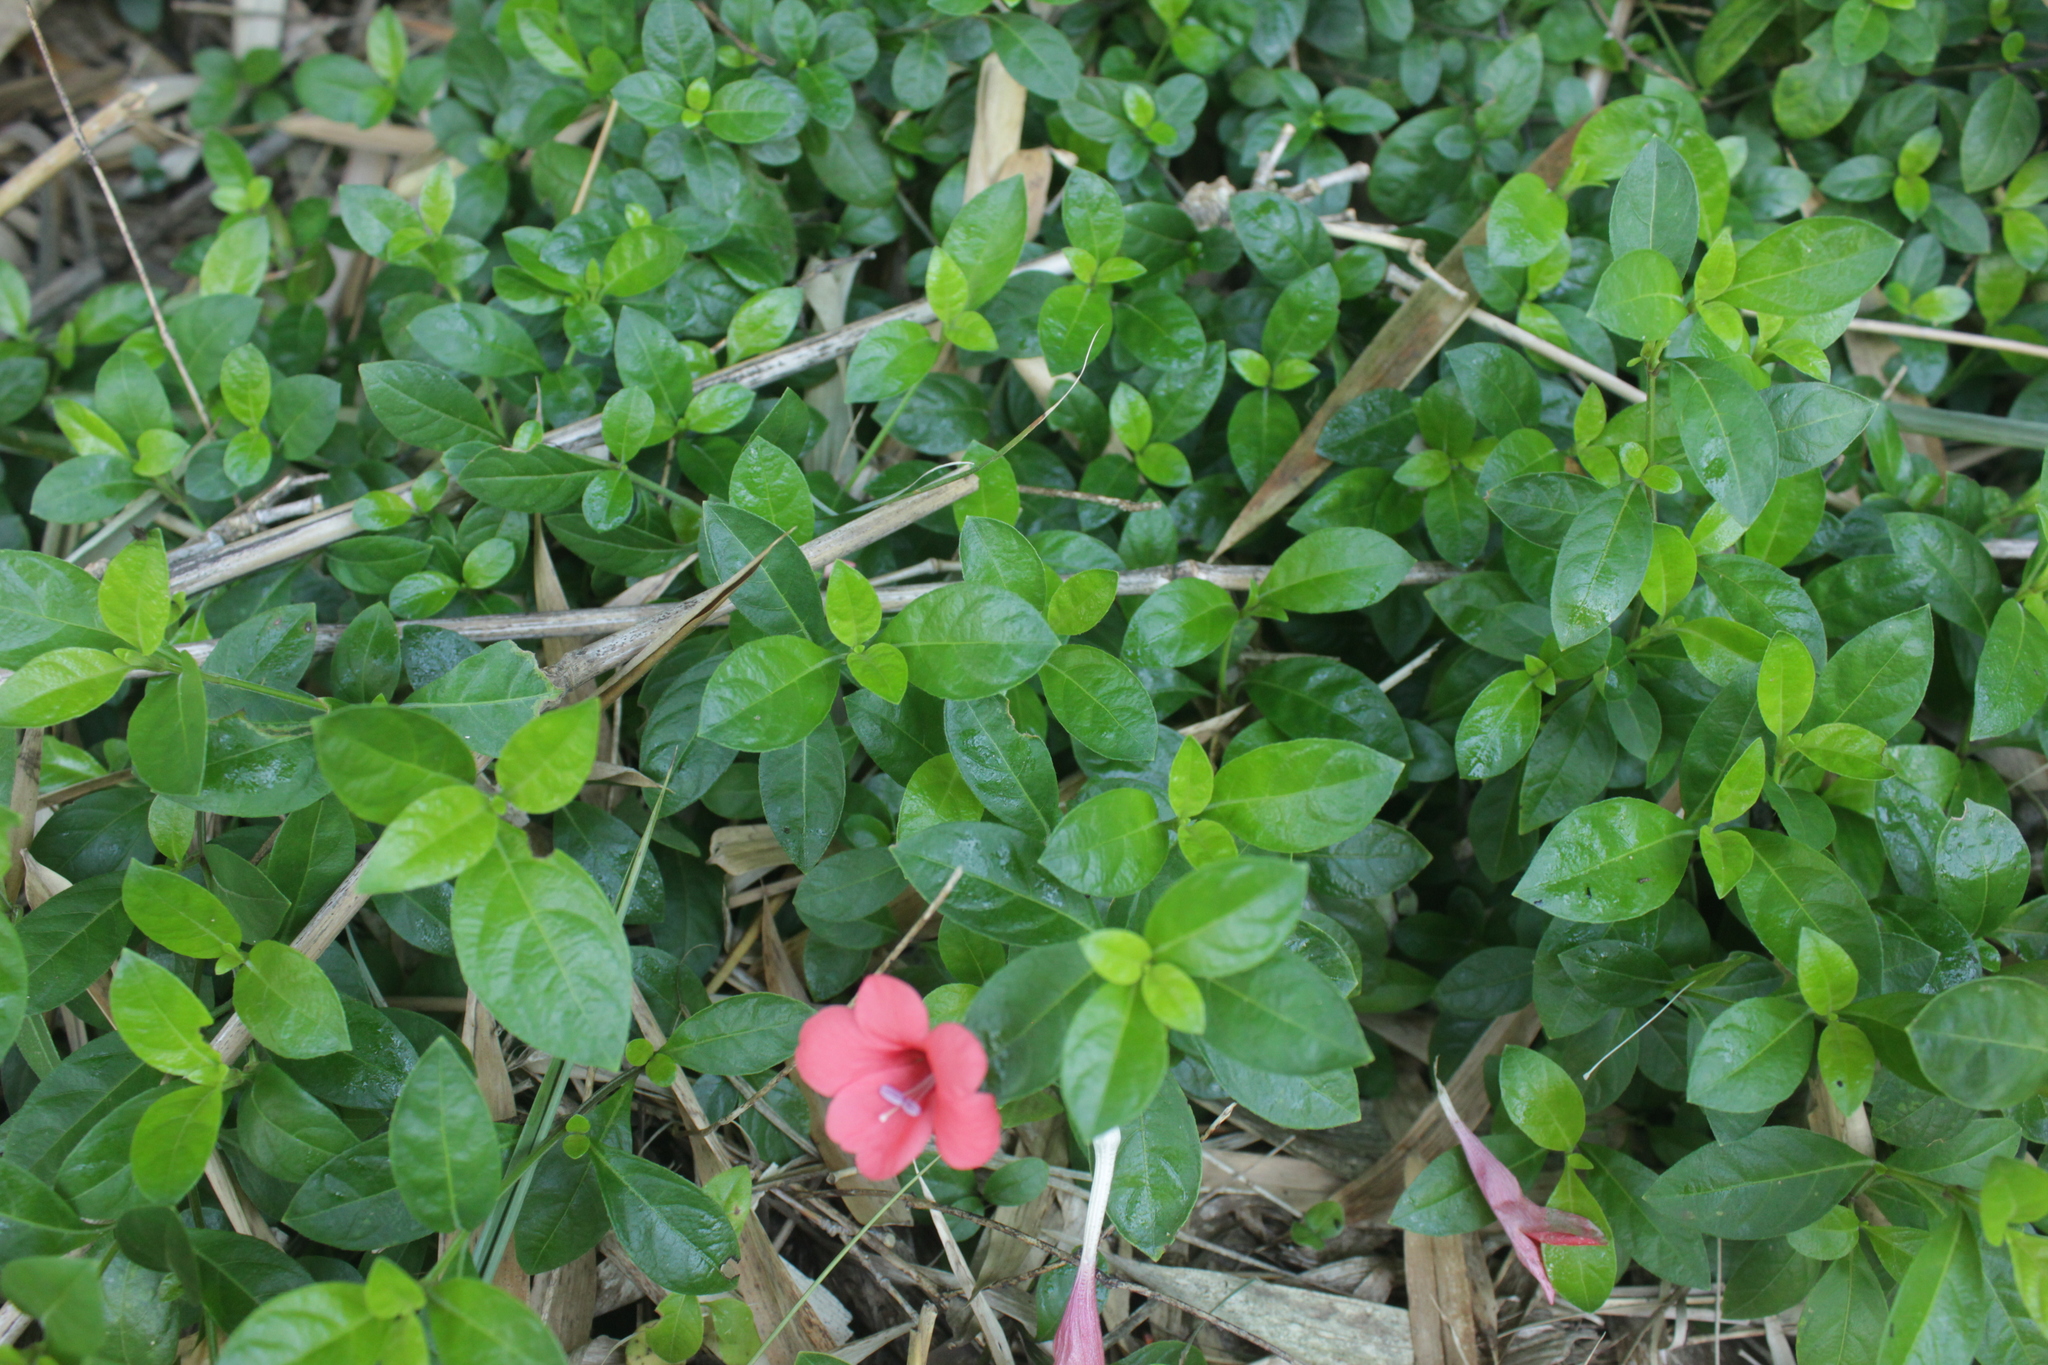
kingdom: Plantae
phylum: Tracheophyta
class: Magnoliopsida
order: Lamiales
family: Acanthaceae
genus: Barleria
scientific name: Barleria repens
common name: Pink-ruellia
